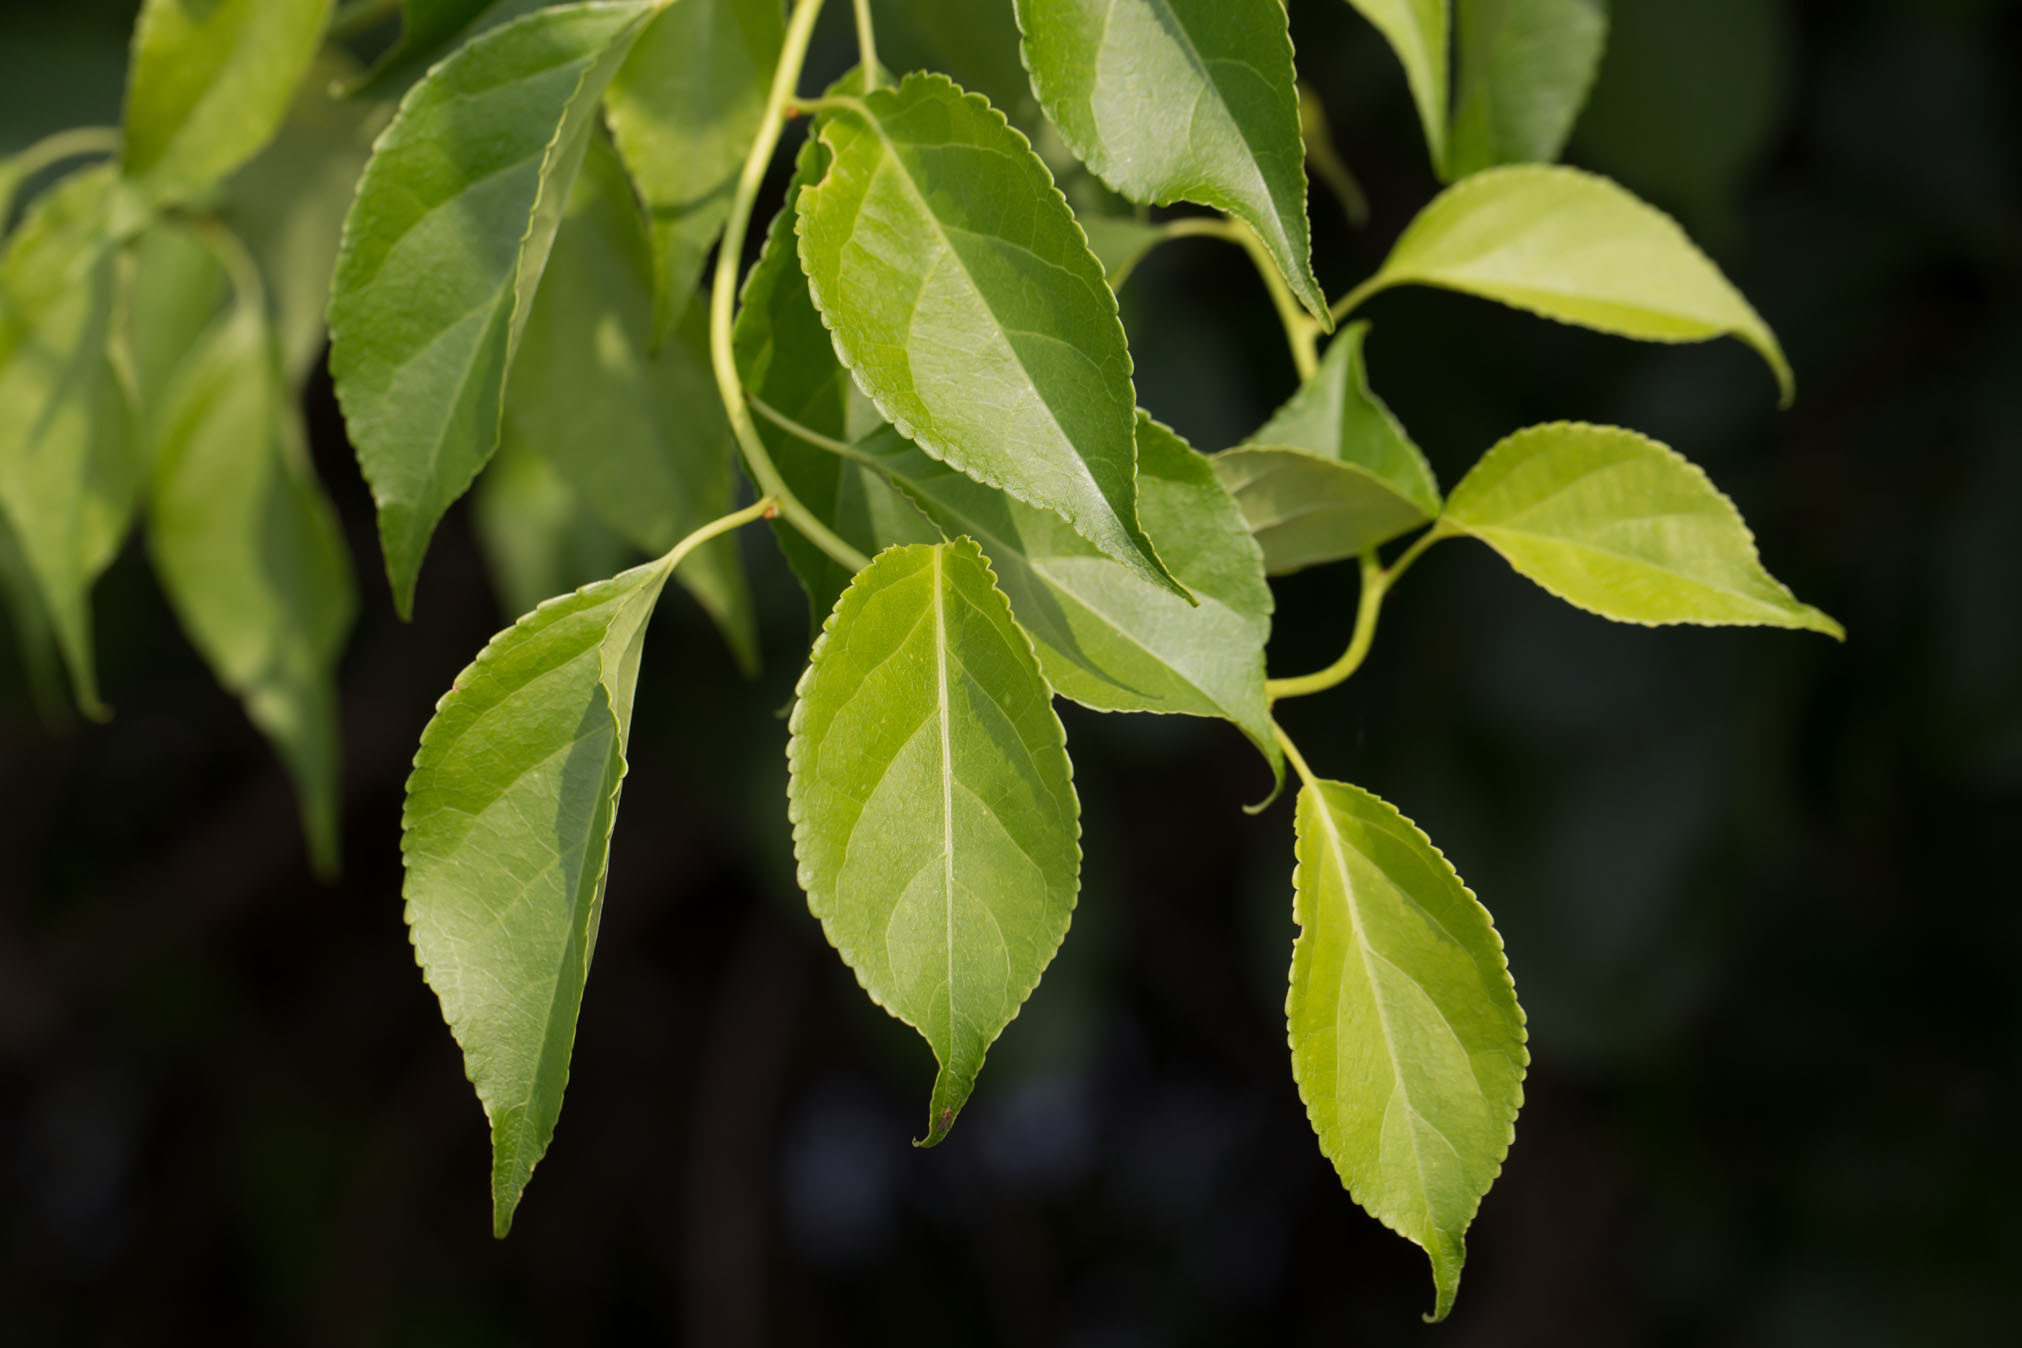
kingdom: Plantae
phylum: Tracheophyta
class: Magnoliopsida
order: Celastrales
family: Celastraceae
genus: Celastrus
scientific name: Celastrus orbiculatus
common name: Oriental bittersweet
